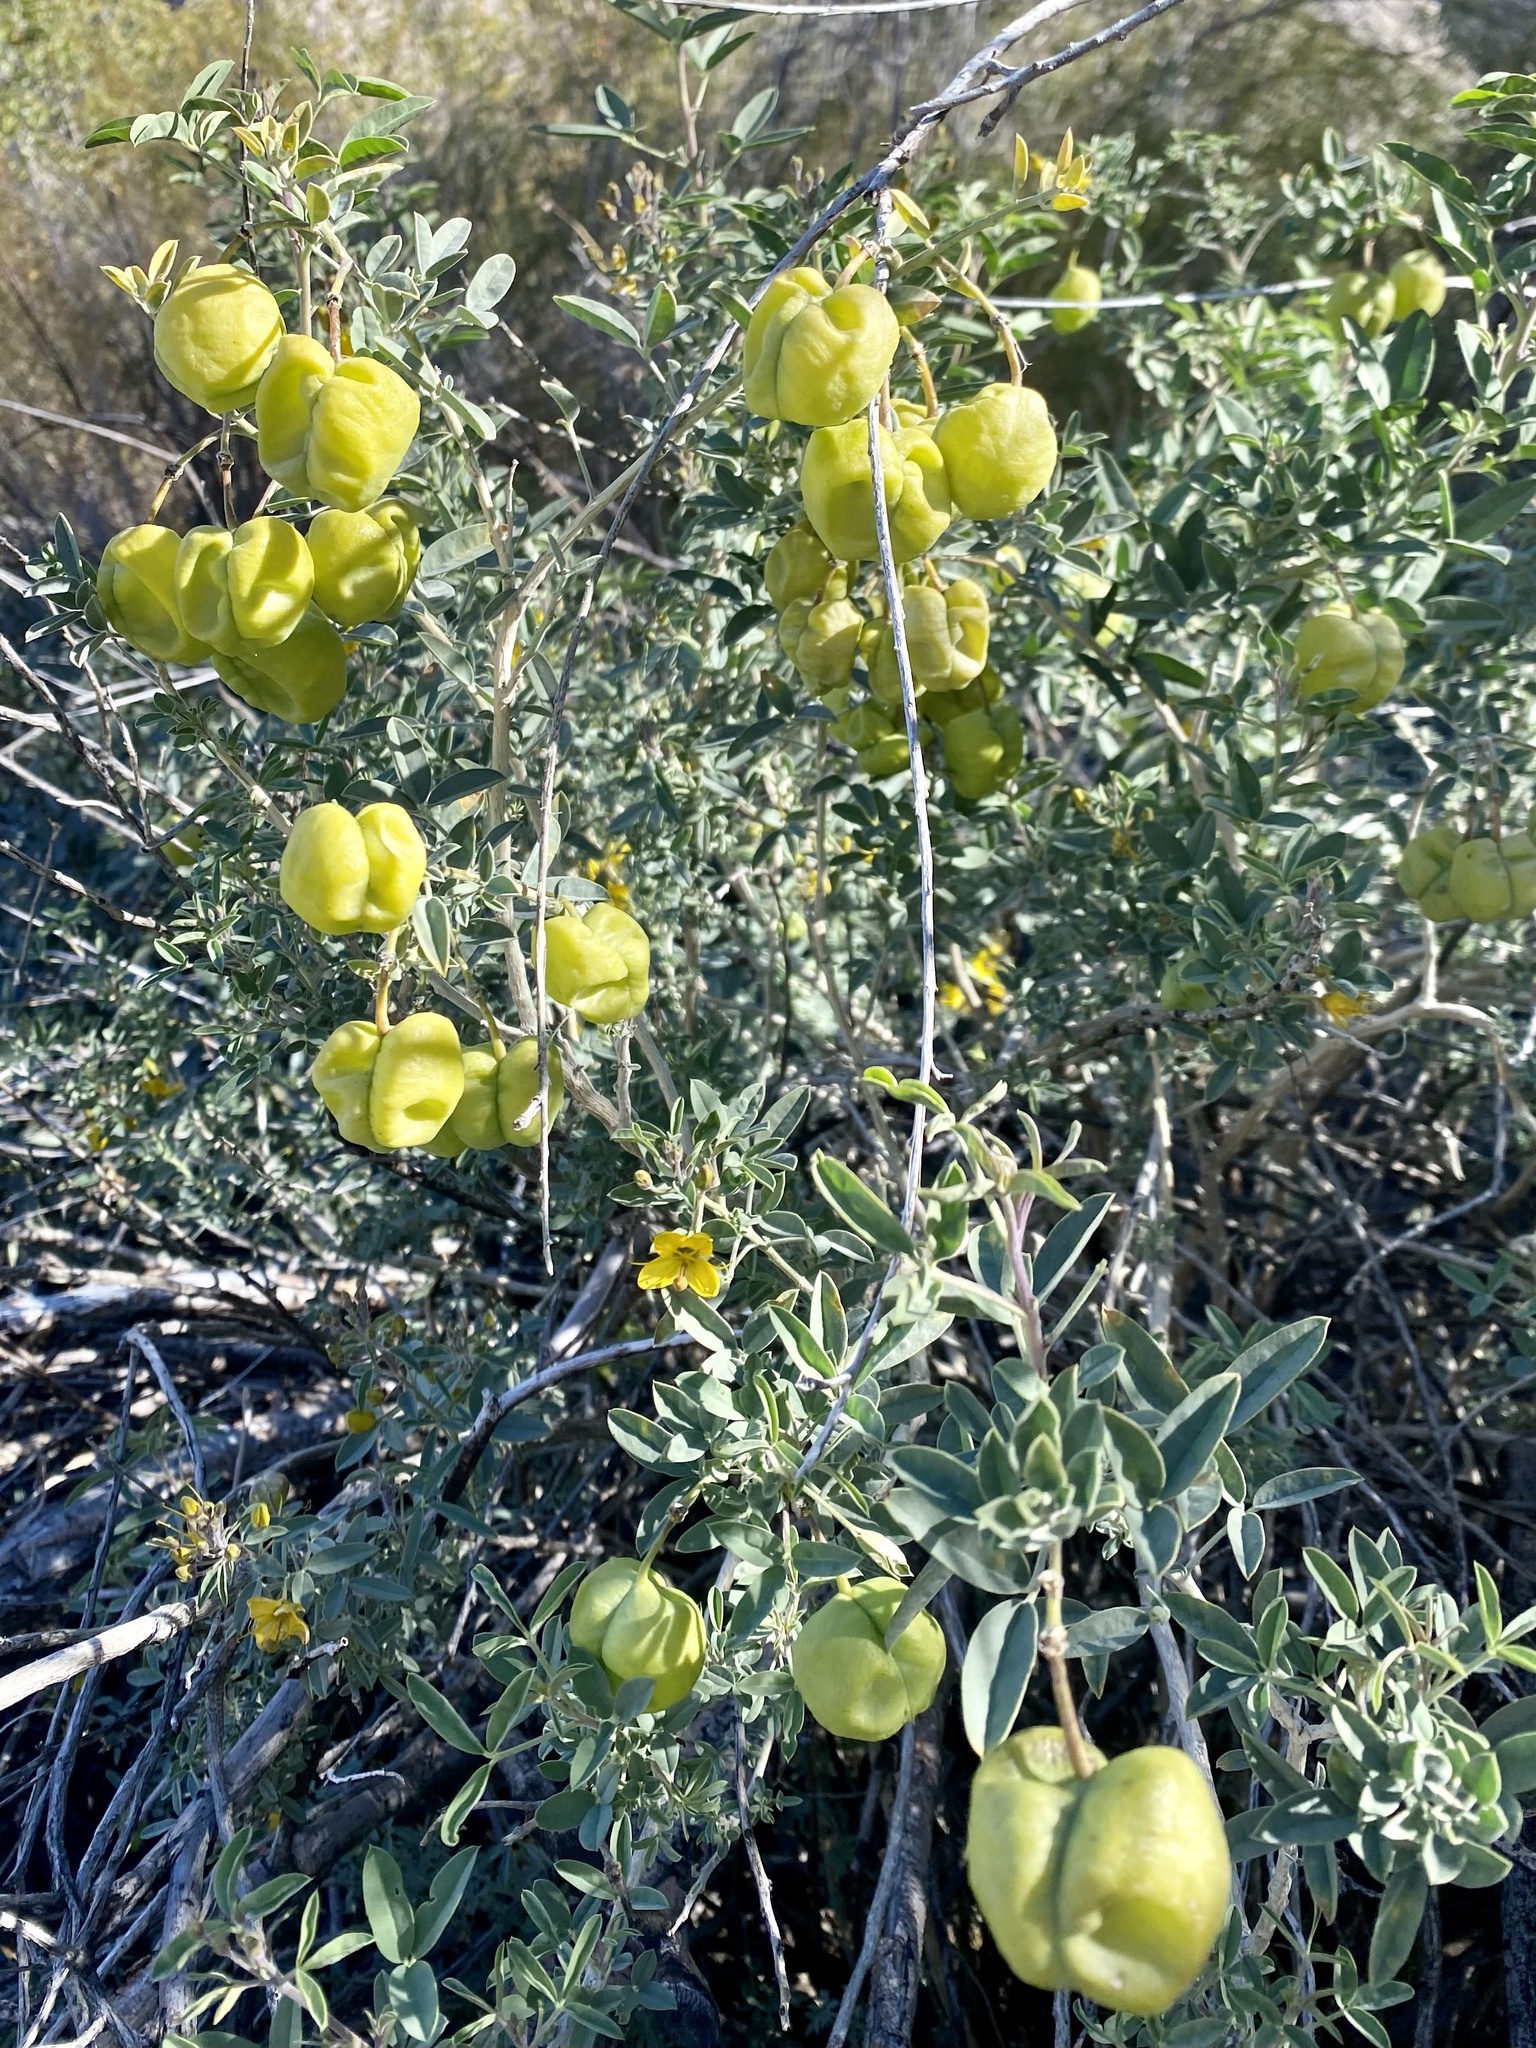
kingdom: Plantae
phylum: Tracheophyta
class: Magnoliopsida
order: Brassicales
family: Cleomaceae
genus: Cleomella
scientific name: Cleomella arborea
